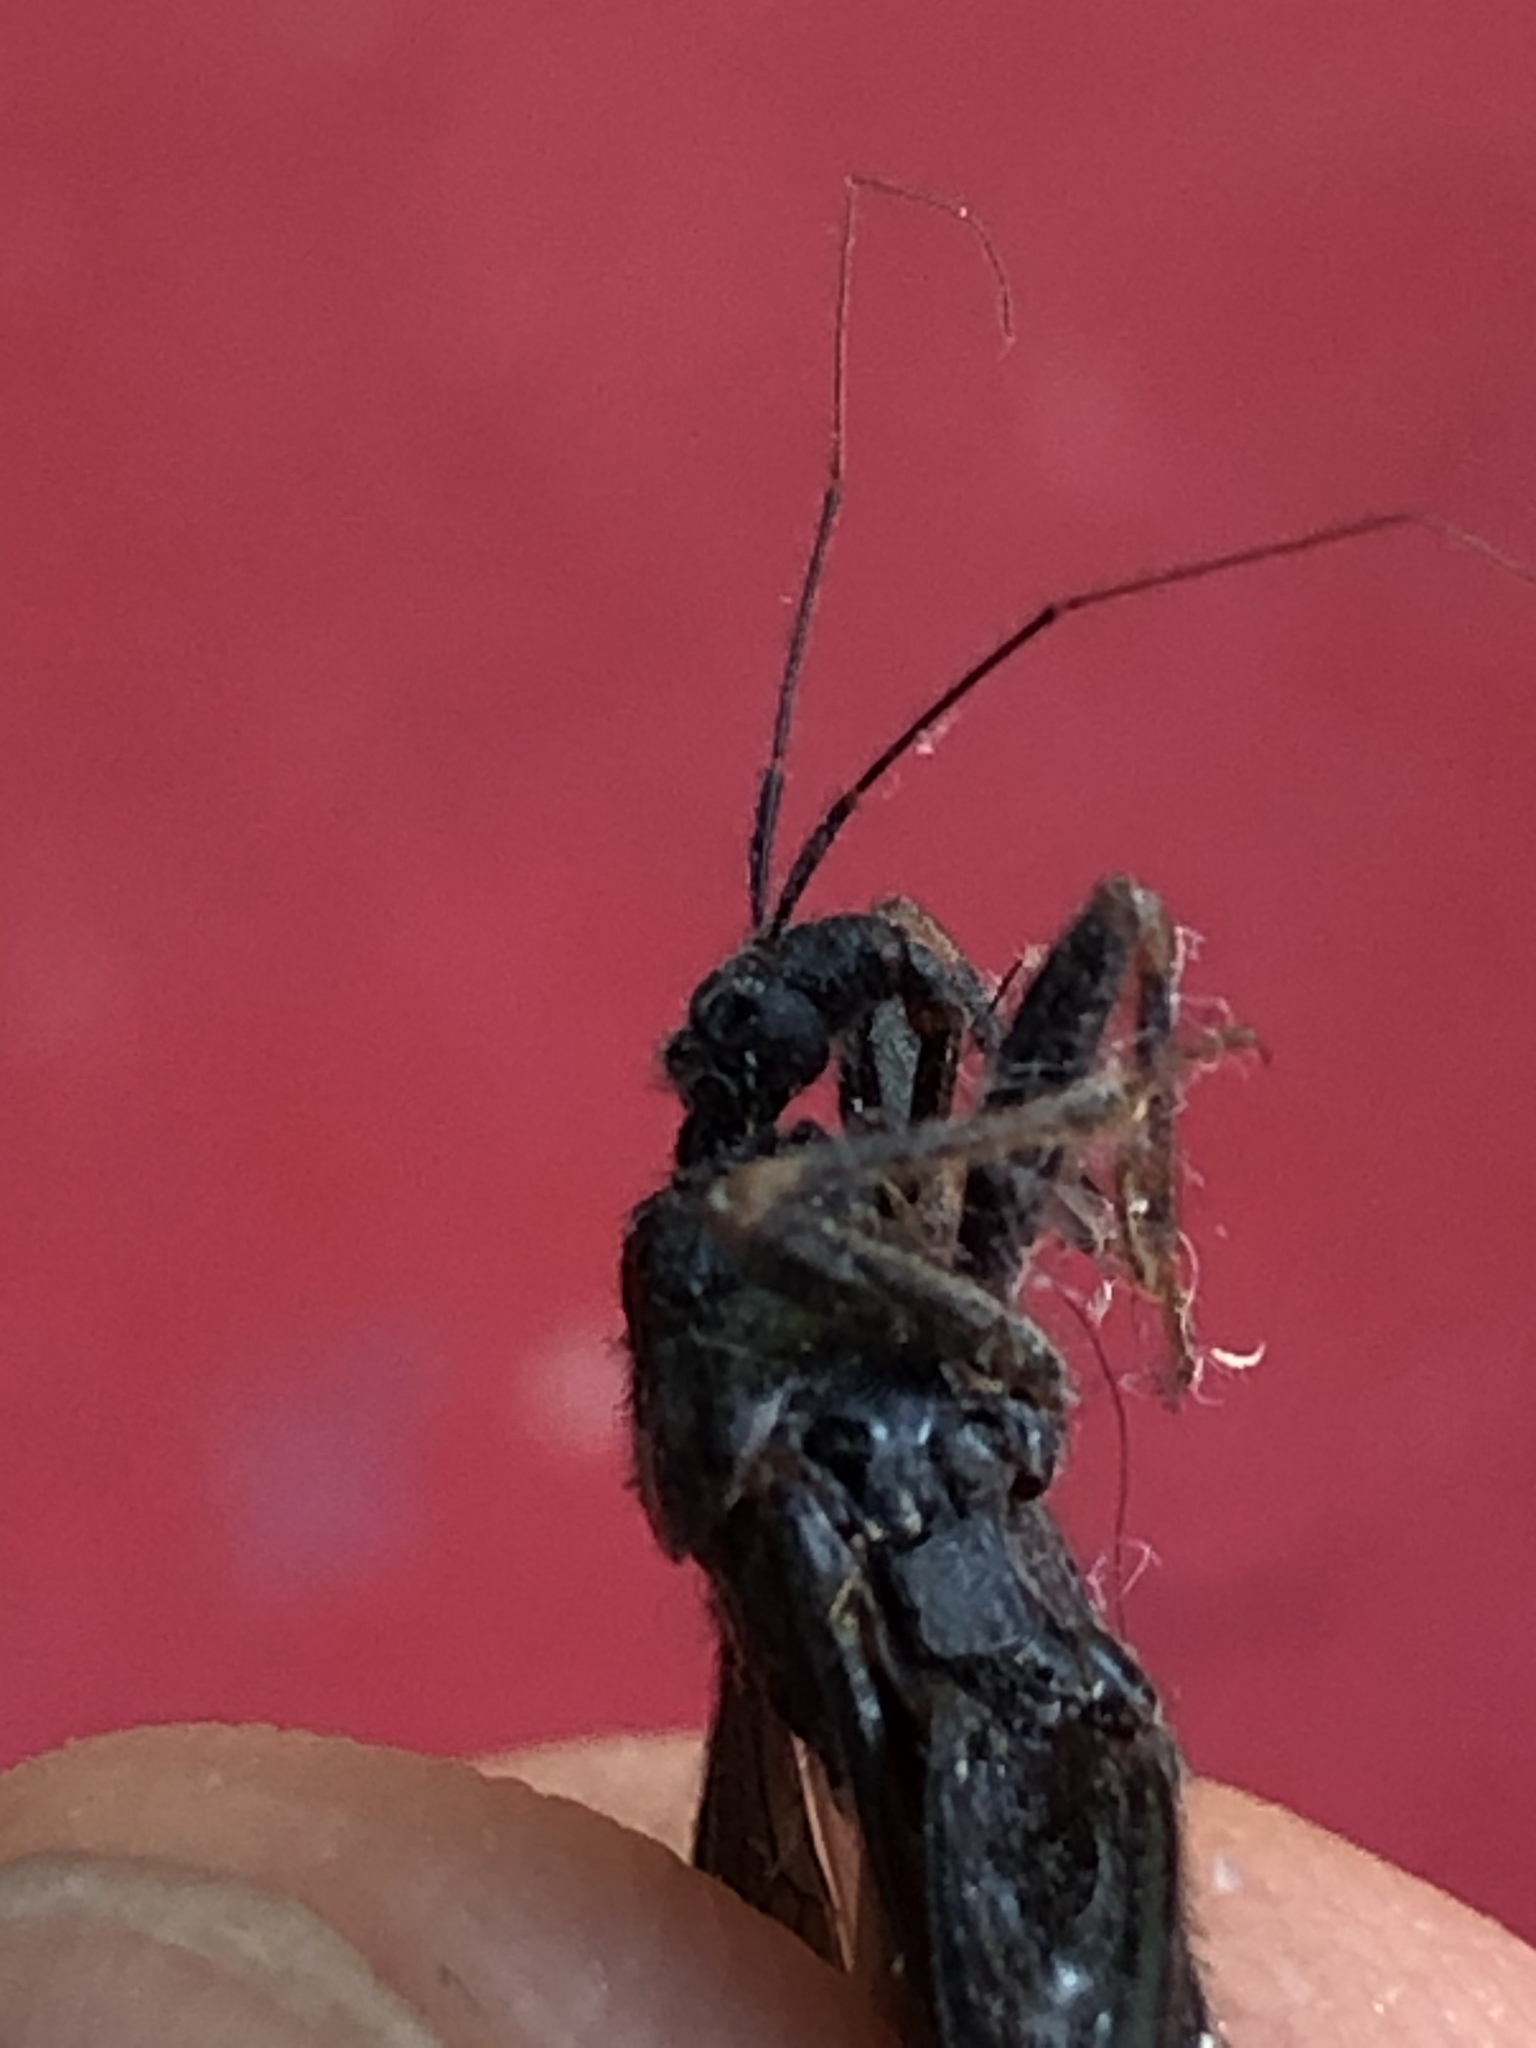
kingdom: Animalia
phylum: Arthropoda
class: Insecta
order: Hemiptera
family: Reduviidae
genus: Reduvius
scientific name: Reduvius personatus
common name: Masked hunter
